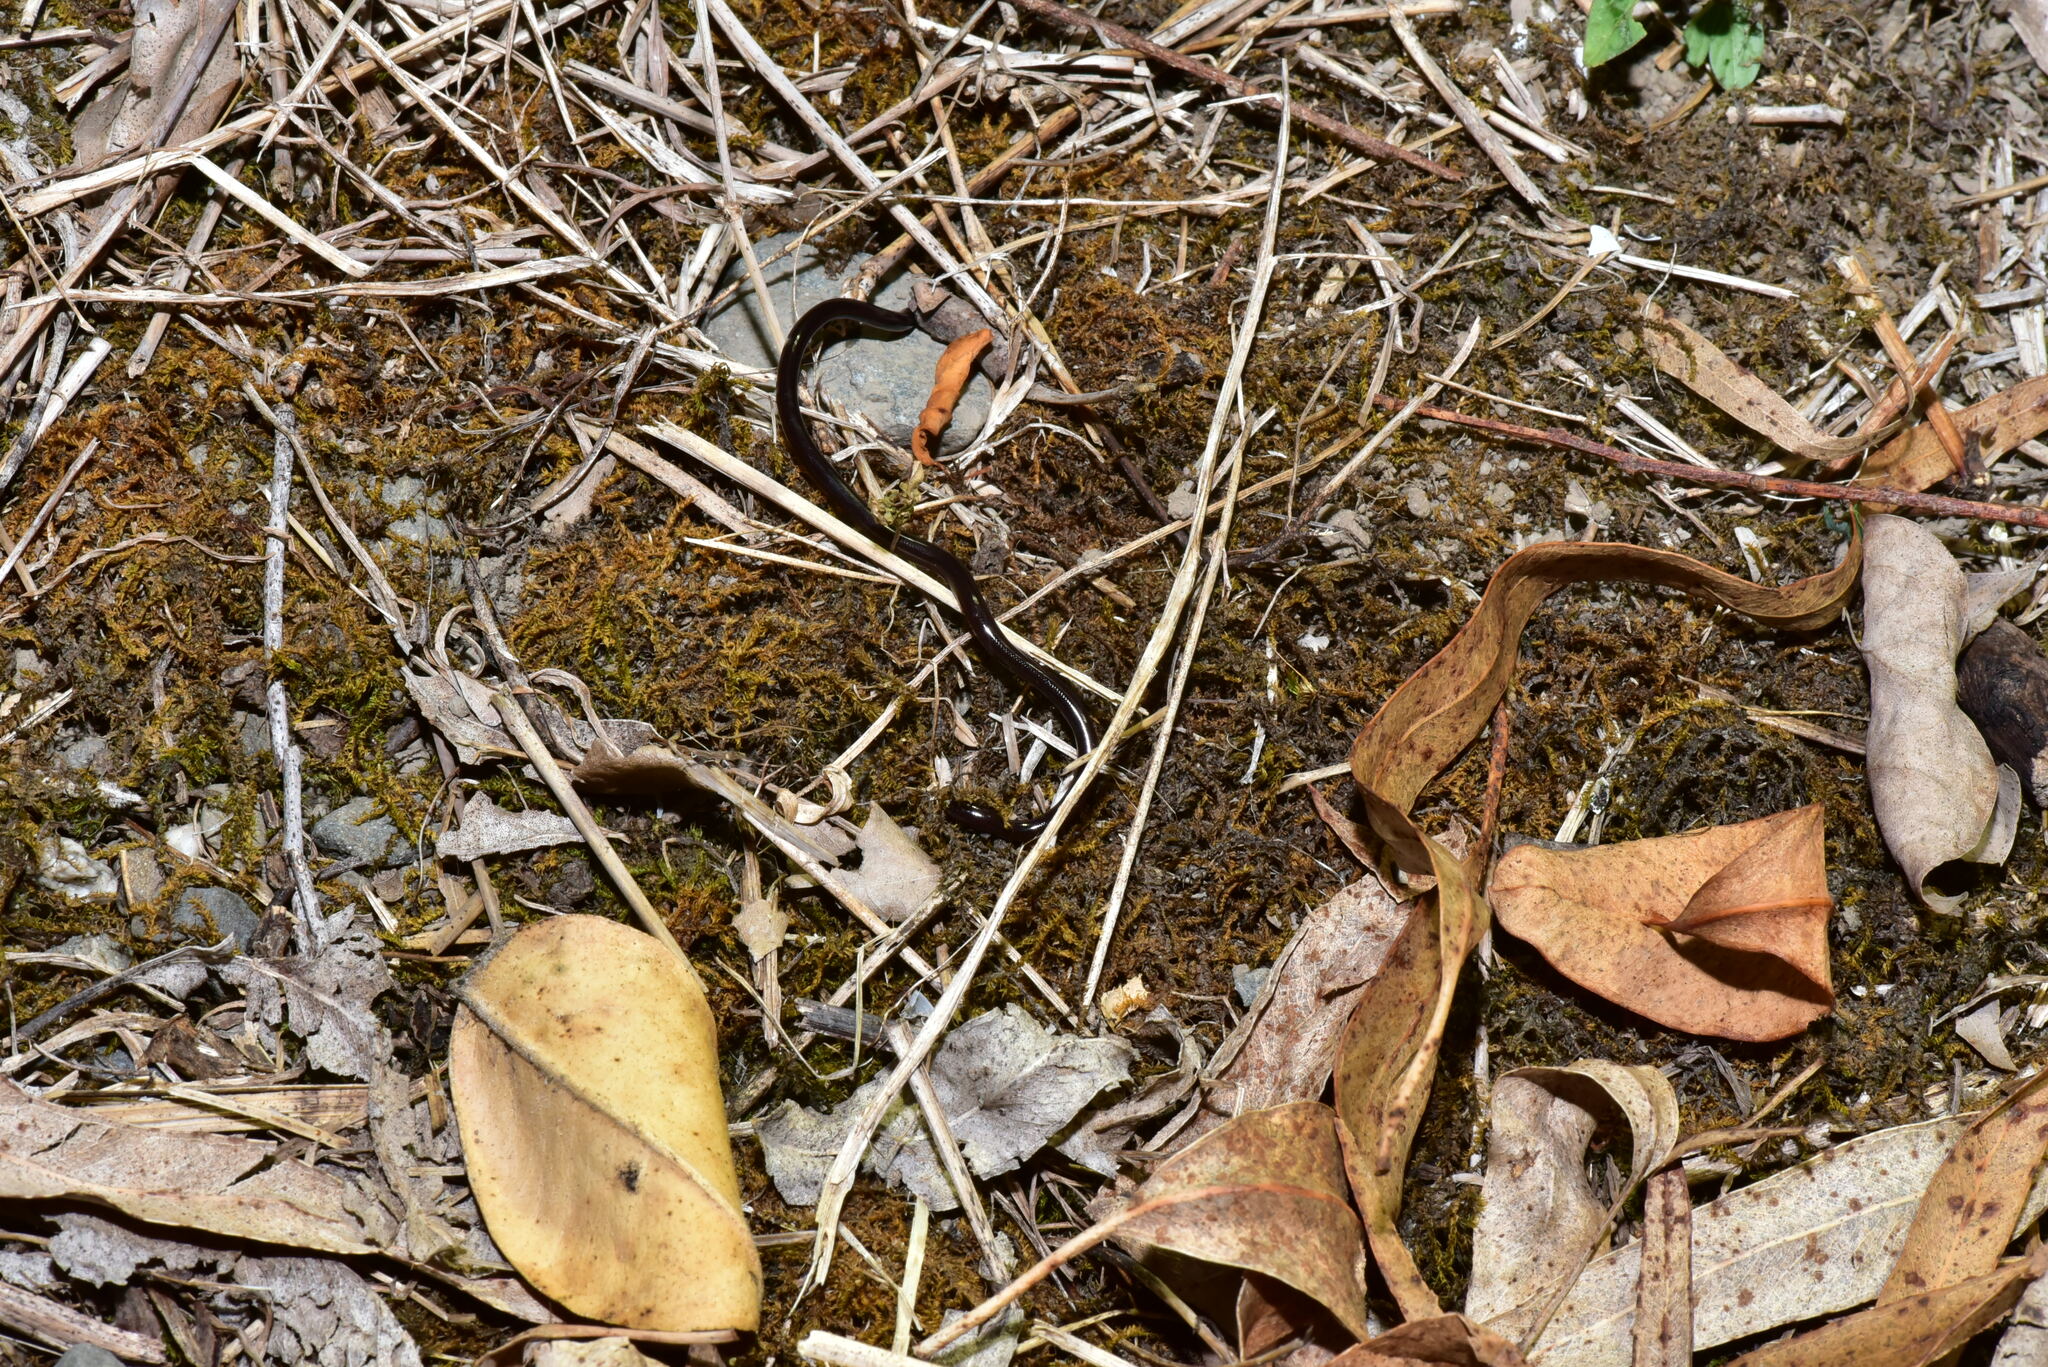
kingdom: Animalia
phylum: Chordata
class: Squamata
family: Typhlopidae
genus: Indotyphlops
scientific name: Indotyphlops braminus
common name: Brahminy blindsnake
